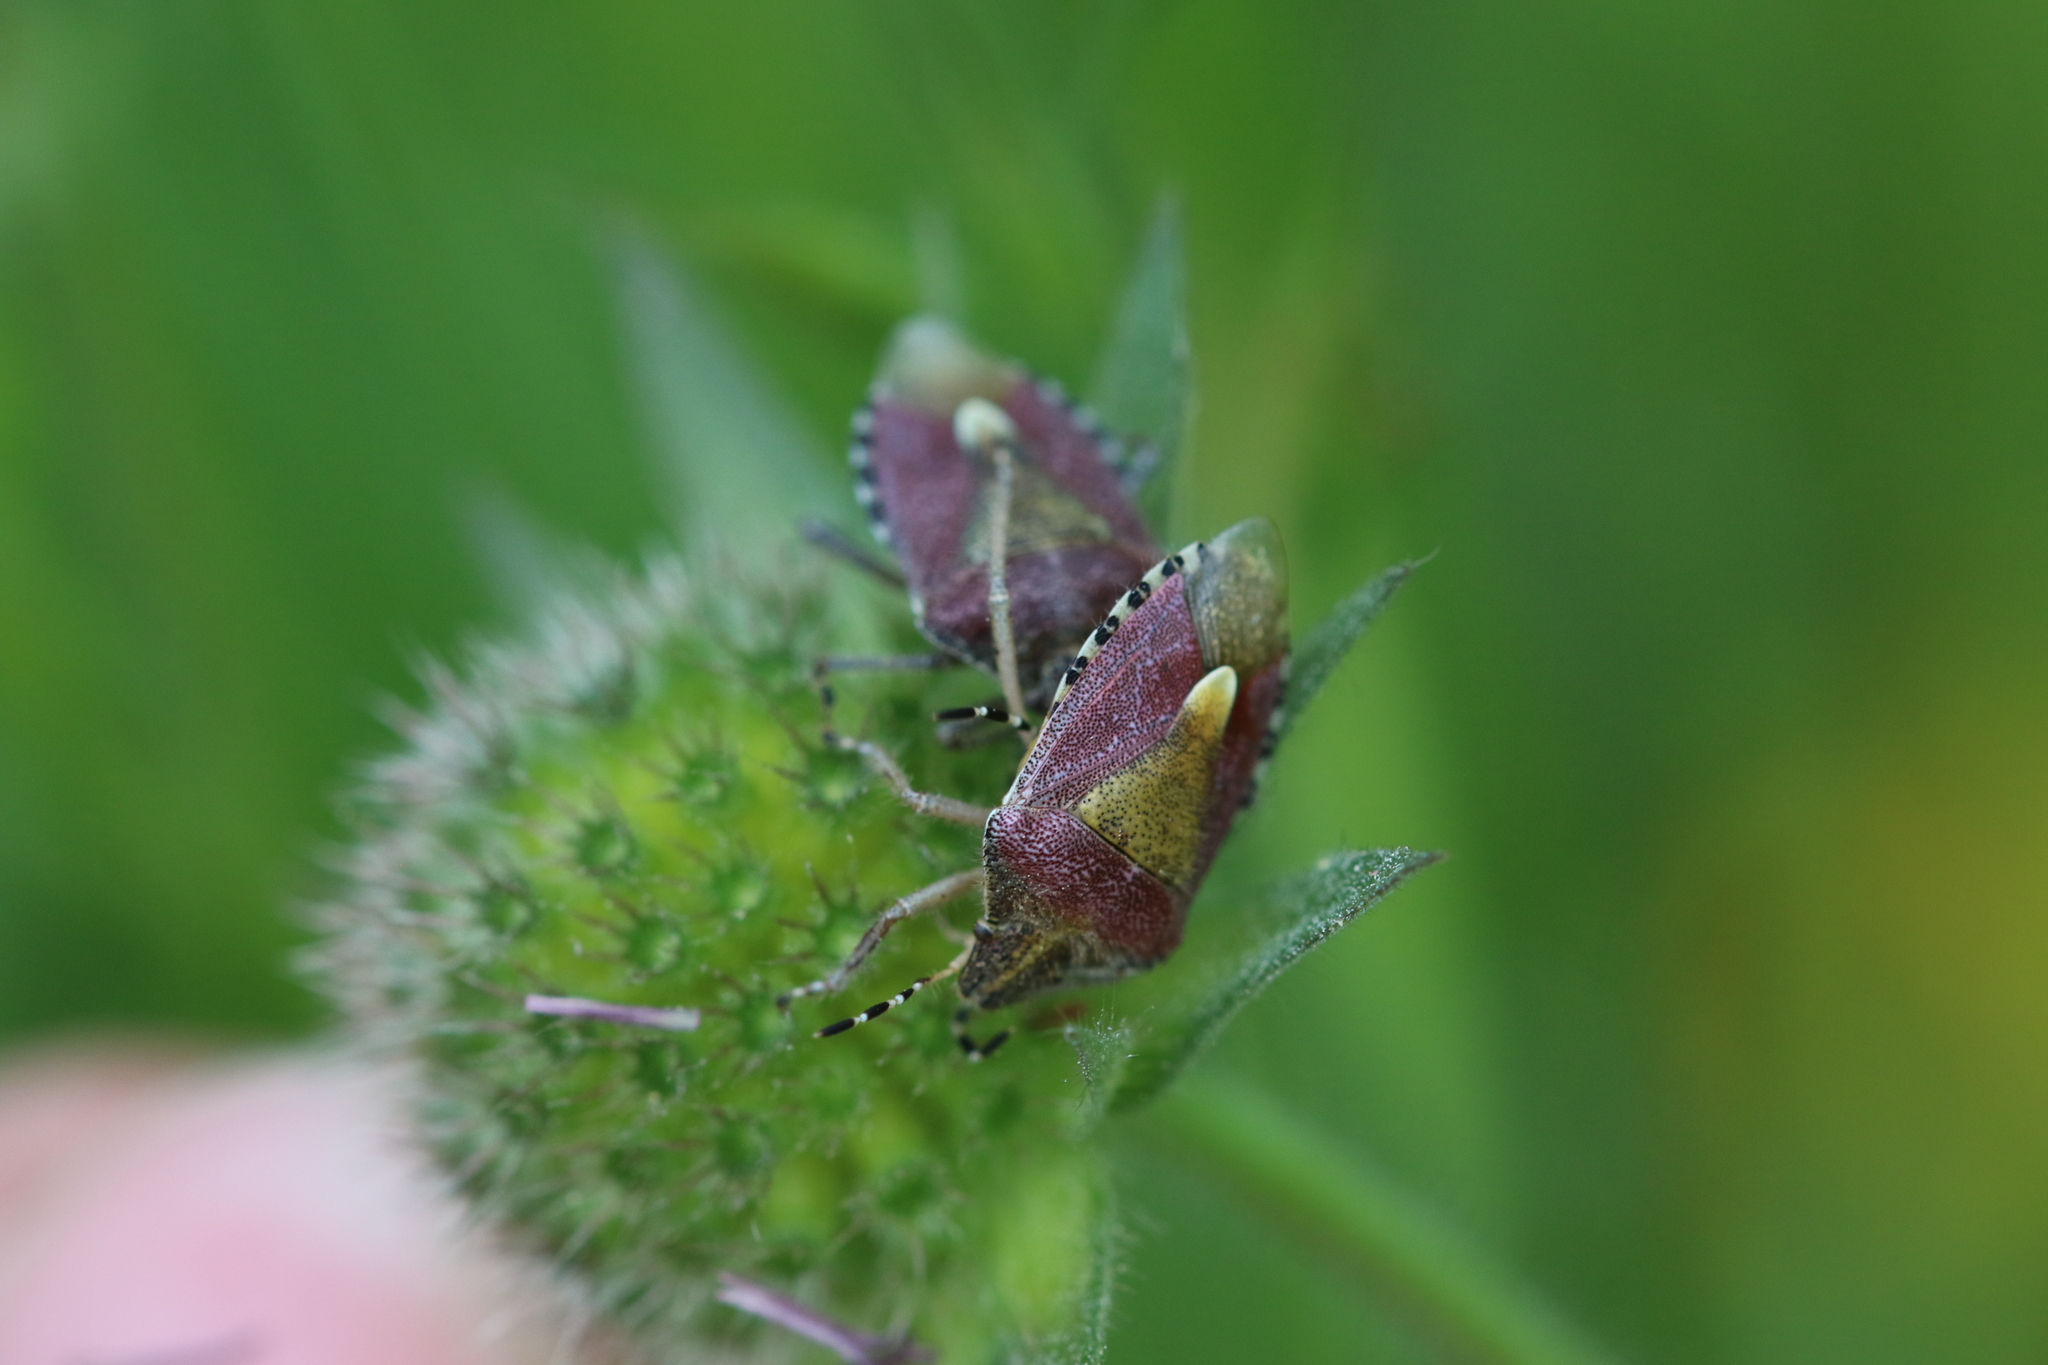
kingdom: Animalia
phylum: Arthropoda
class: Insecta
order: Hemiptera
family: Pentatomidae
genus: Dolycoris
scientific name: Dolycoris baccarum
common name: Sloe bug
